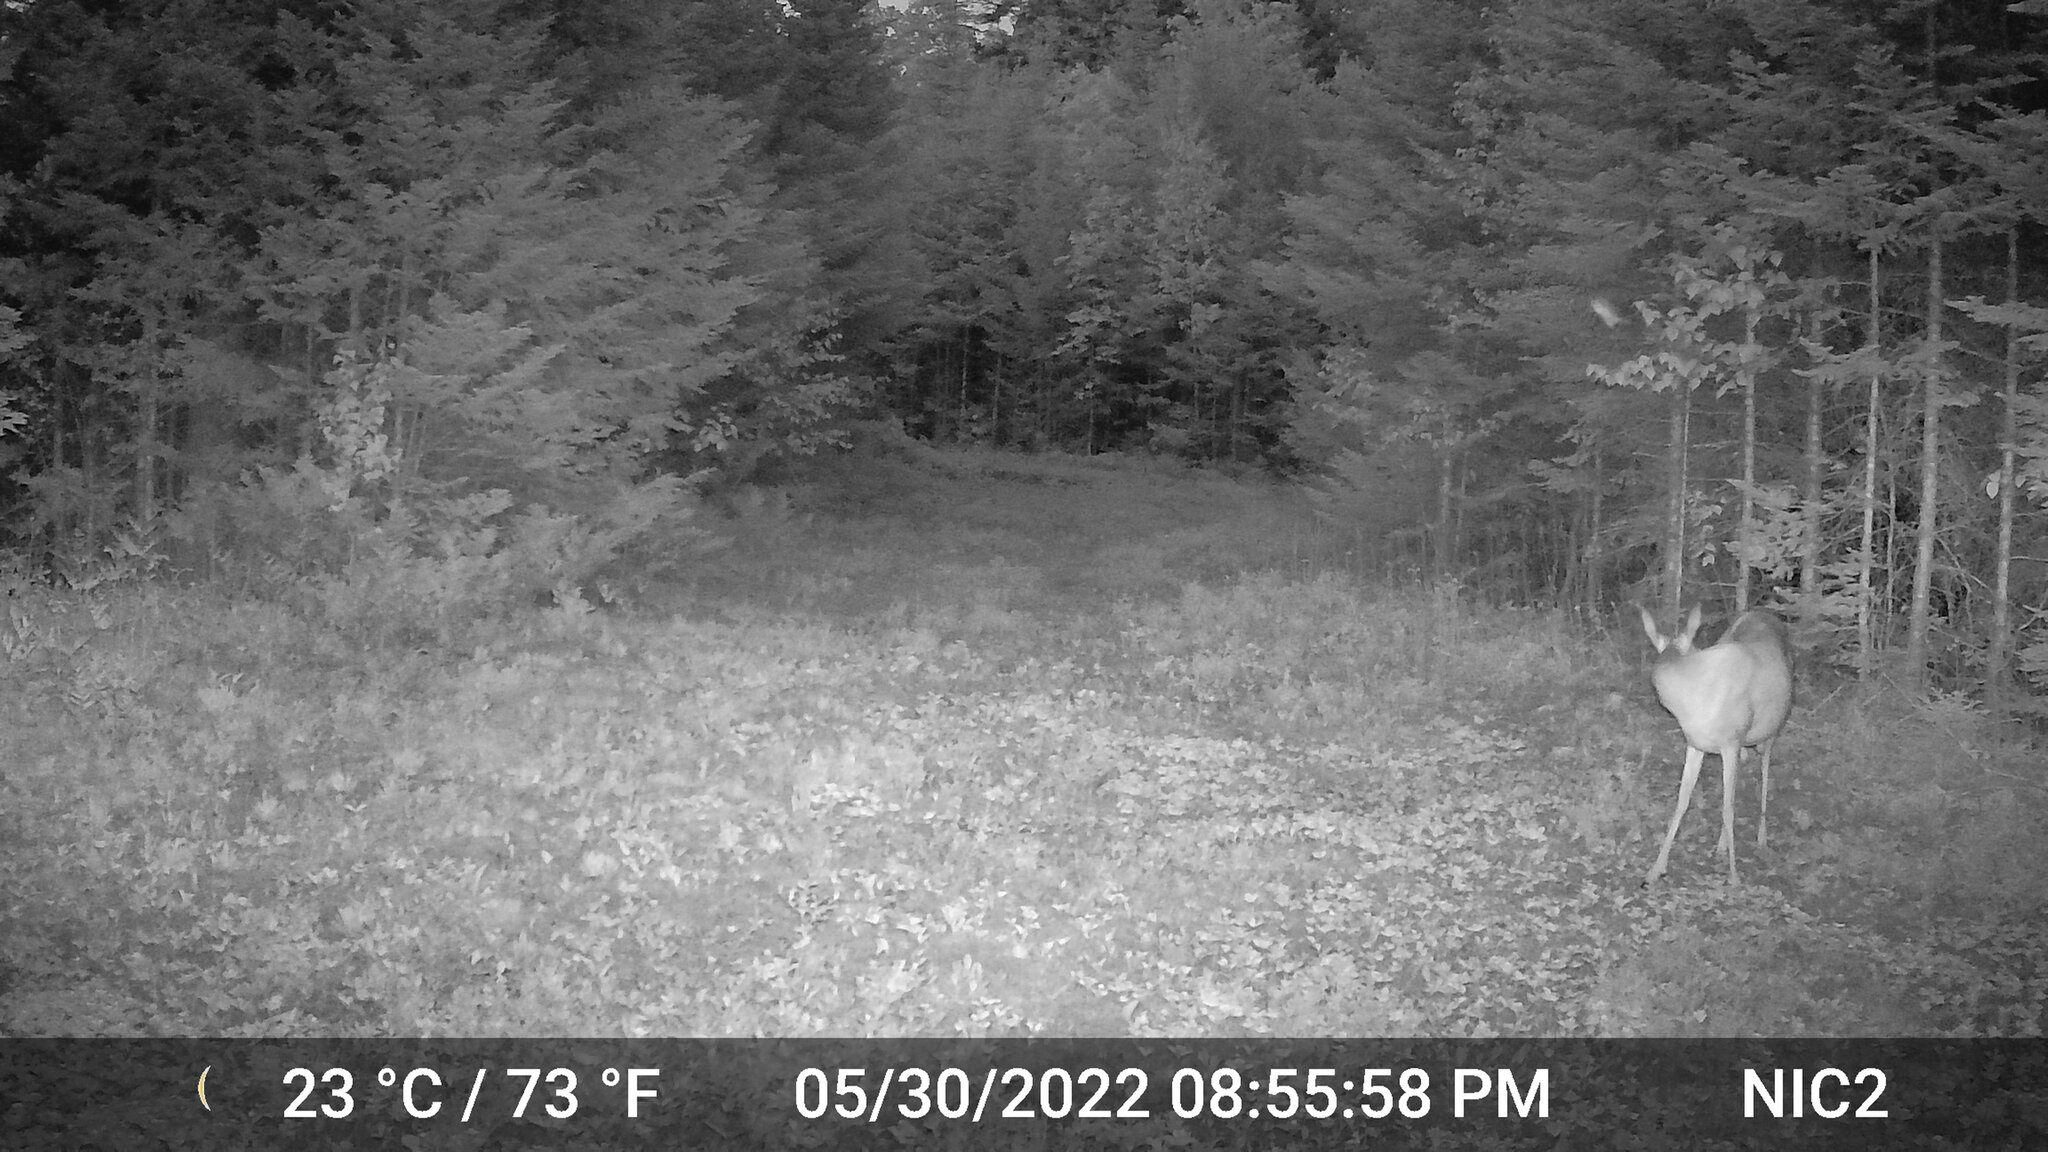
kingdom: Animalia
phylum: Chordata
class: Mammalia
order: Artiodactyla
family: Cervidae
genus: Odocoileus
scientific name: Odocoileus virginianus
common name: White-tailed deer
